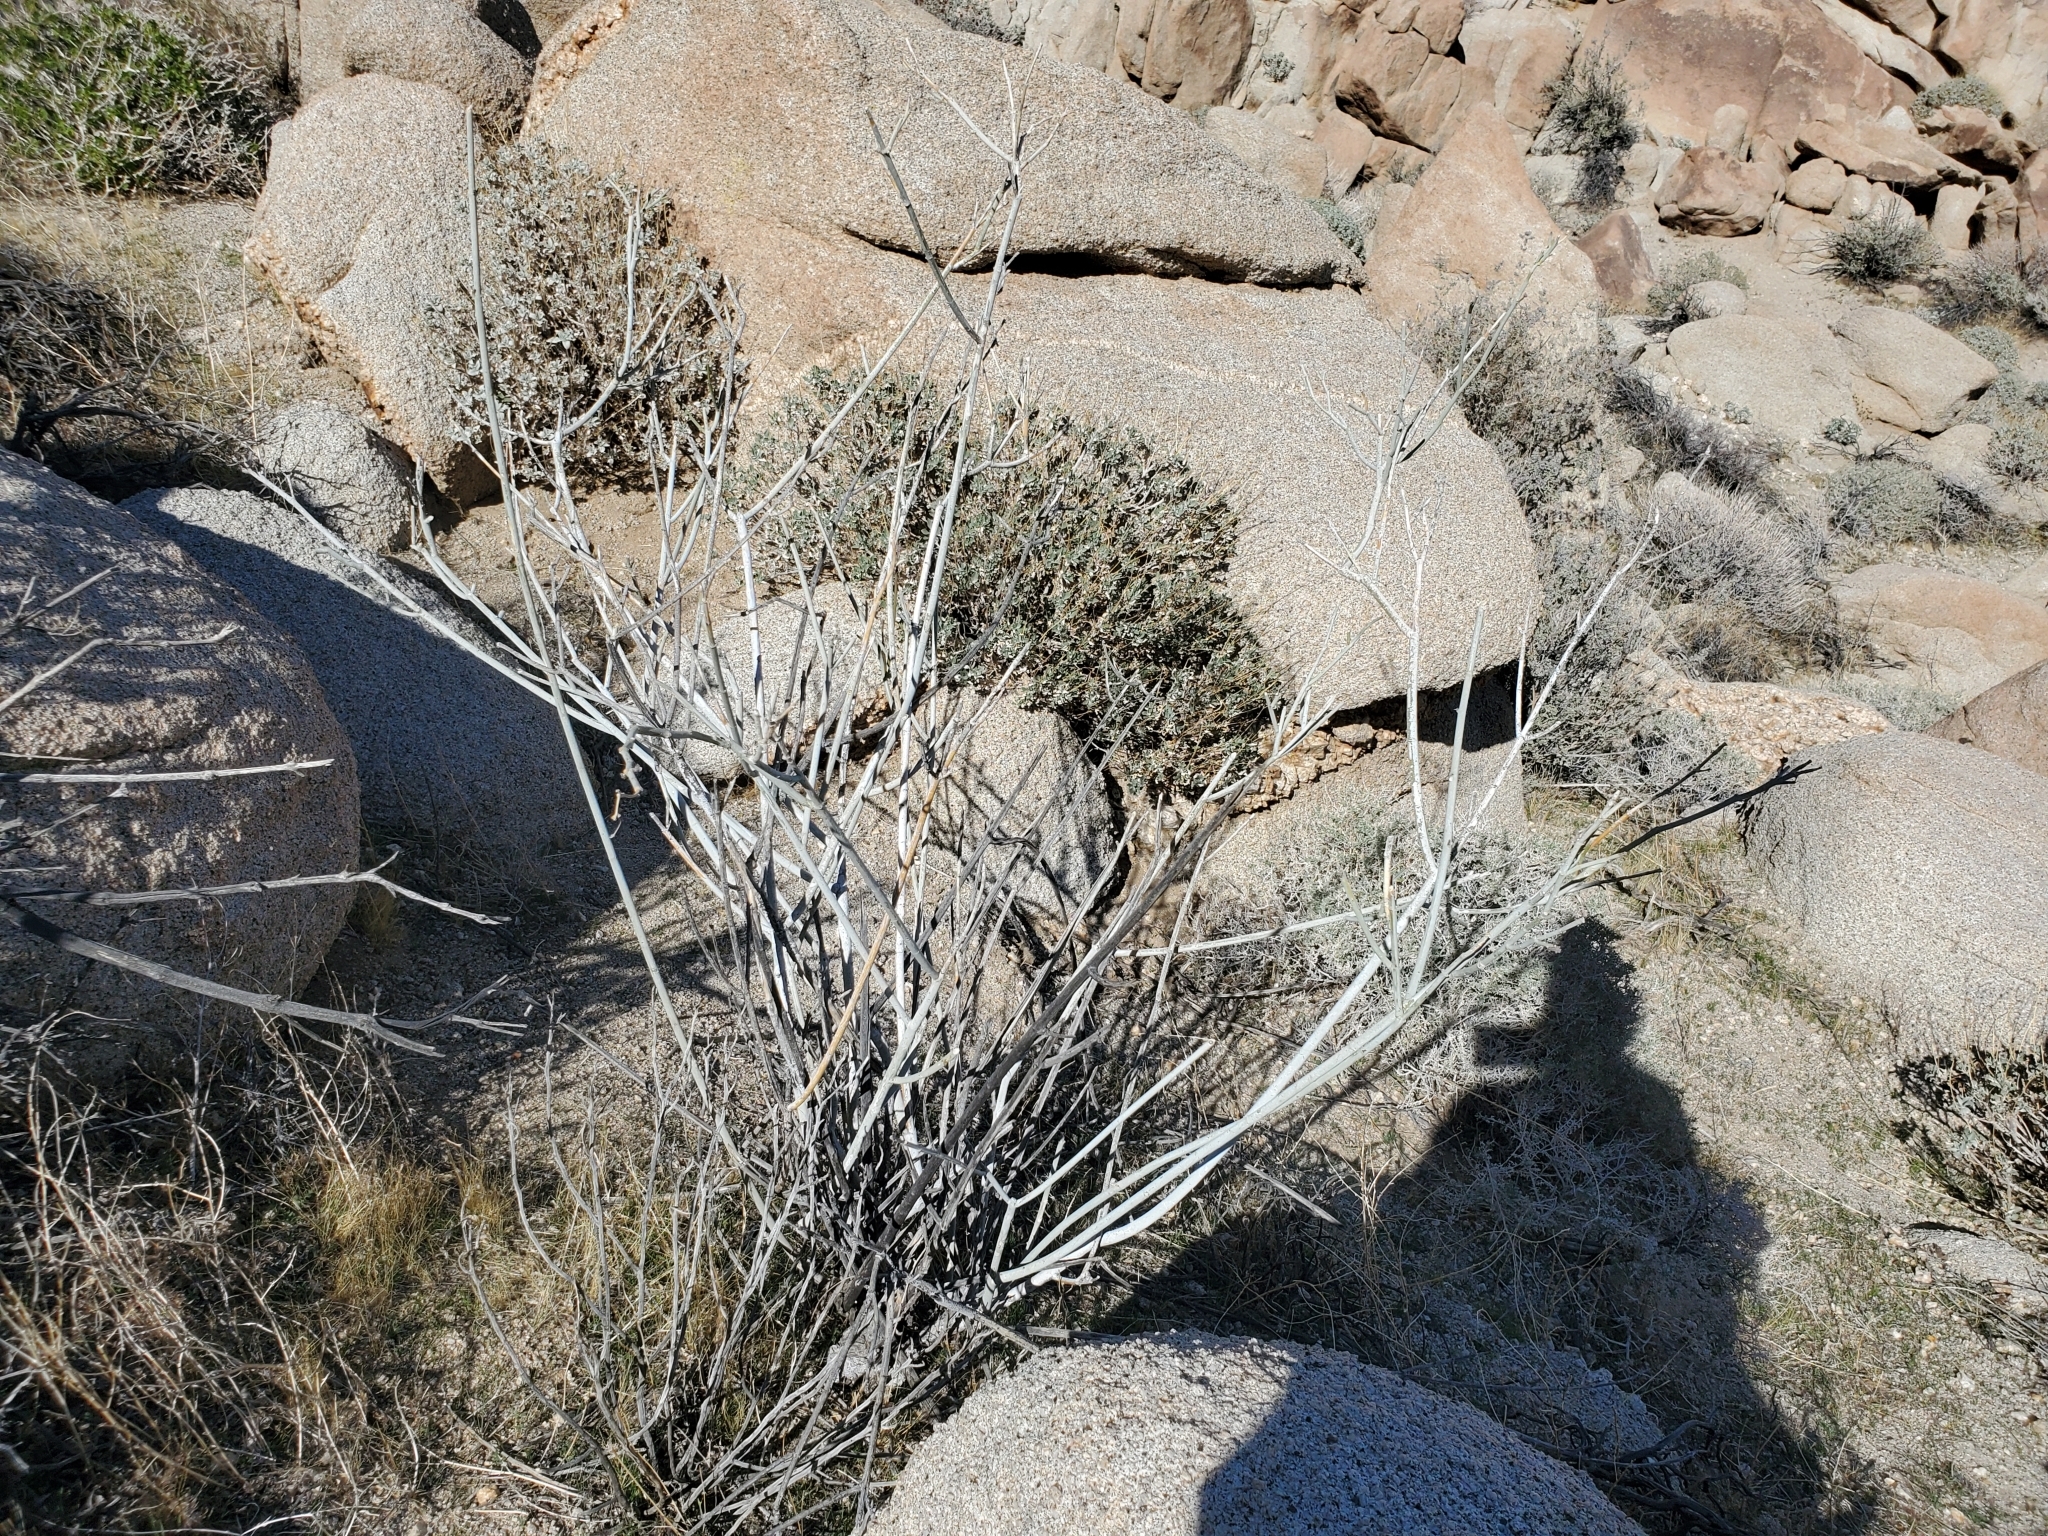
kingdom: Plantae
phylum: Tracheophyta
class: Magnoliopsida
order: Gentianales
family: Apocynaceae
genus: Asclepias
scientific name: Asclepias albicans
